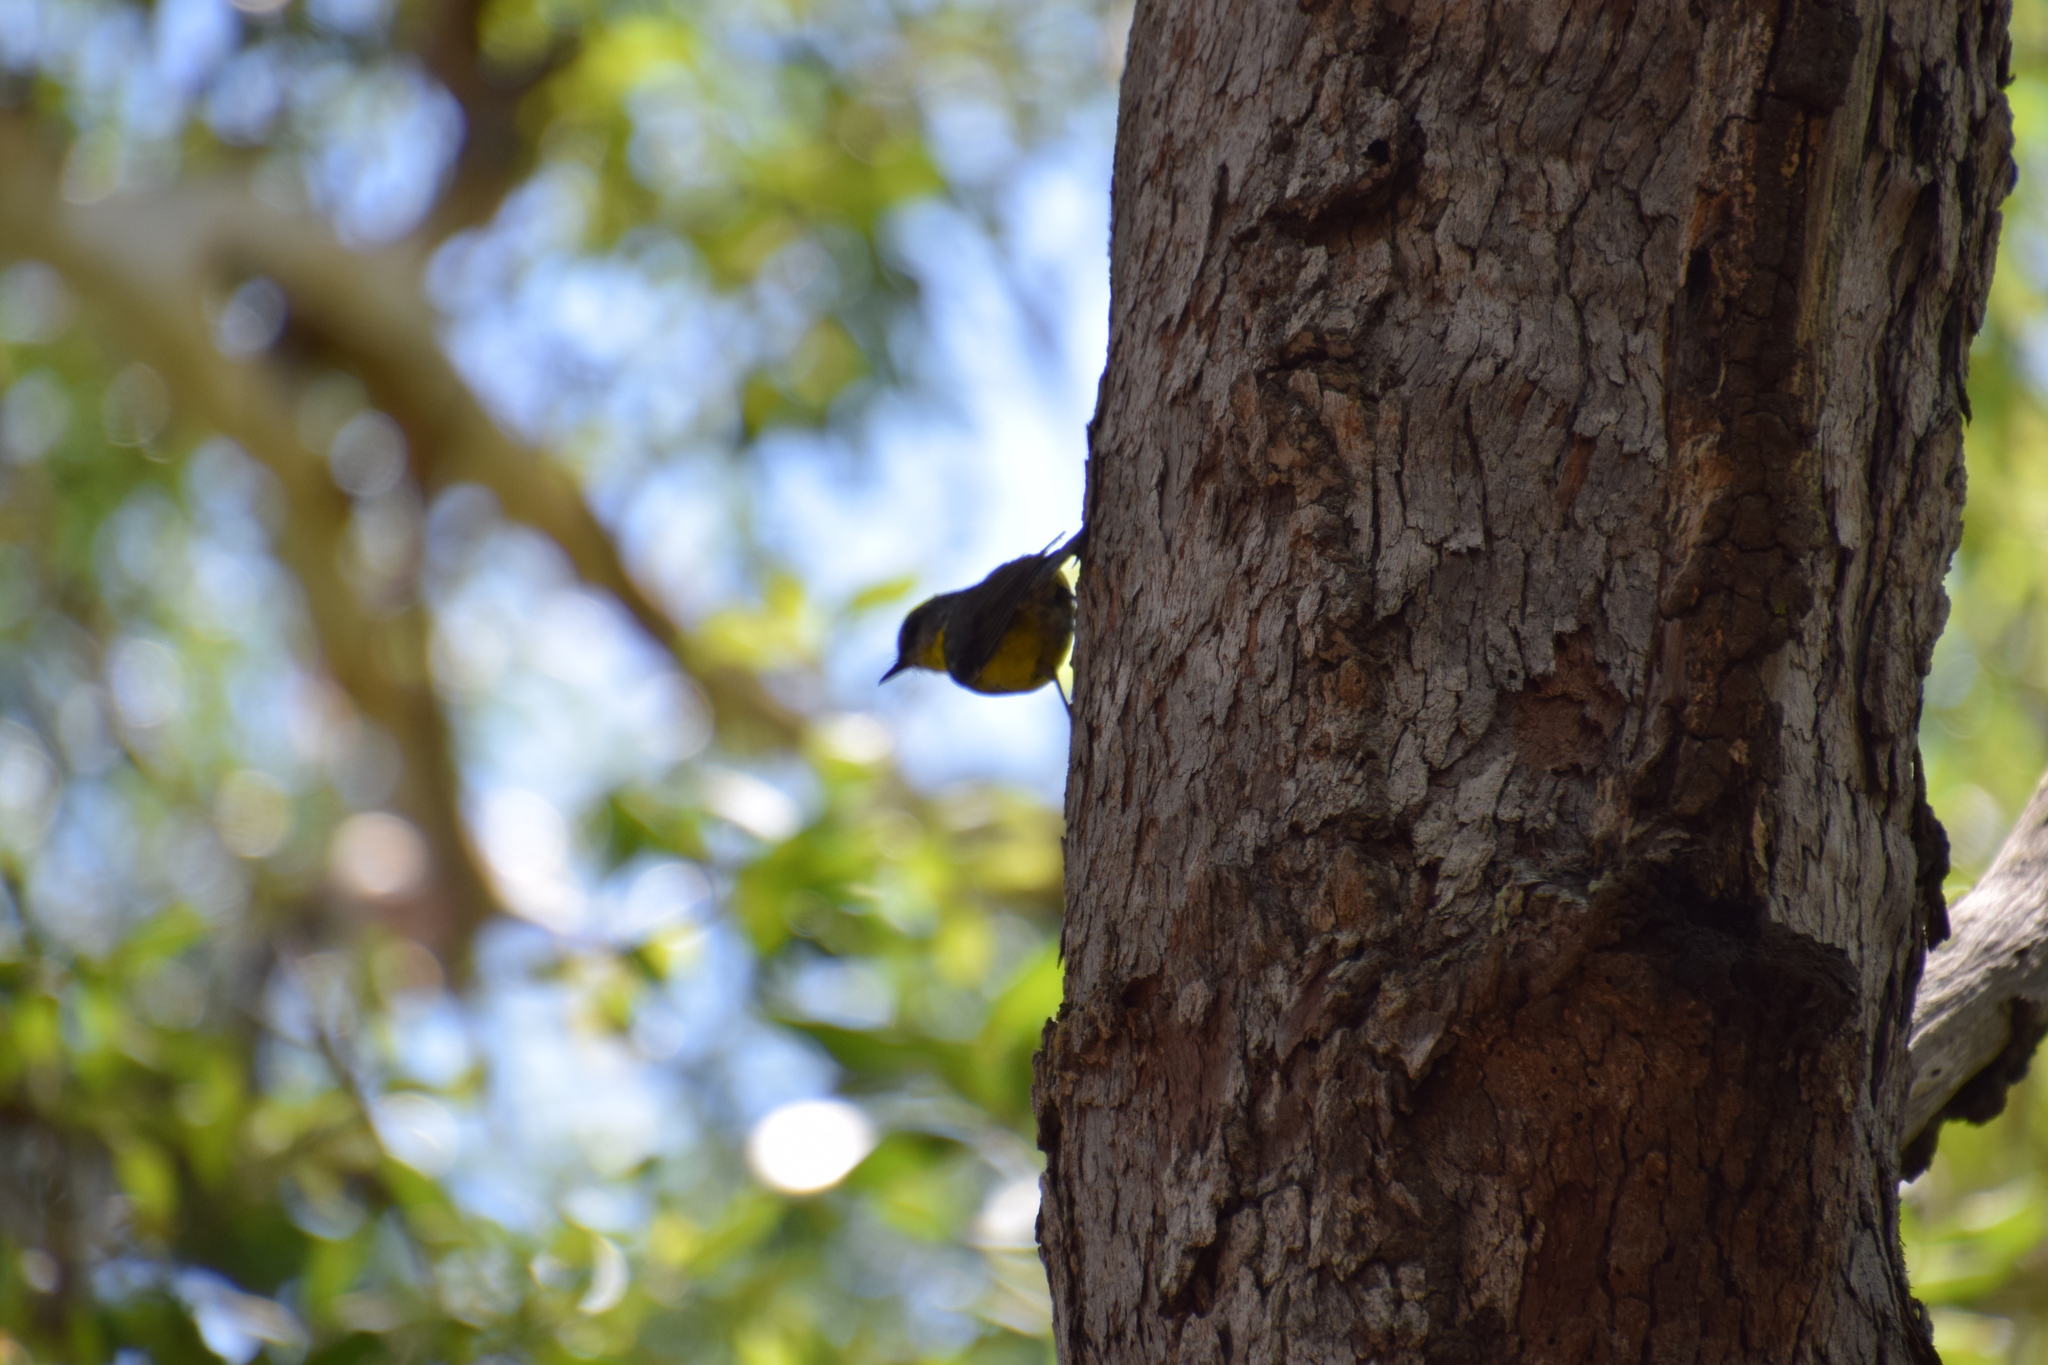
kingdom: Animalia
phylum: Chordata
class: Aves
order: Passeriformes
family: Petroicidae
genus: Eopsaltria
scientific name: Eopsaltria australis
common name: Eastern yellow robin
